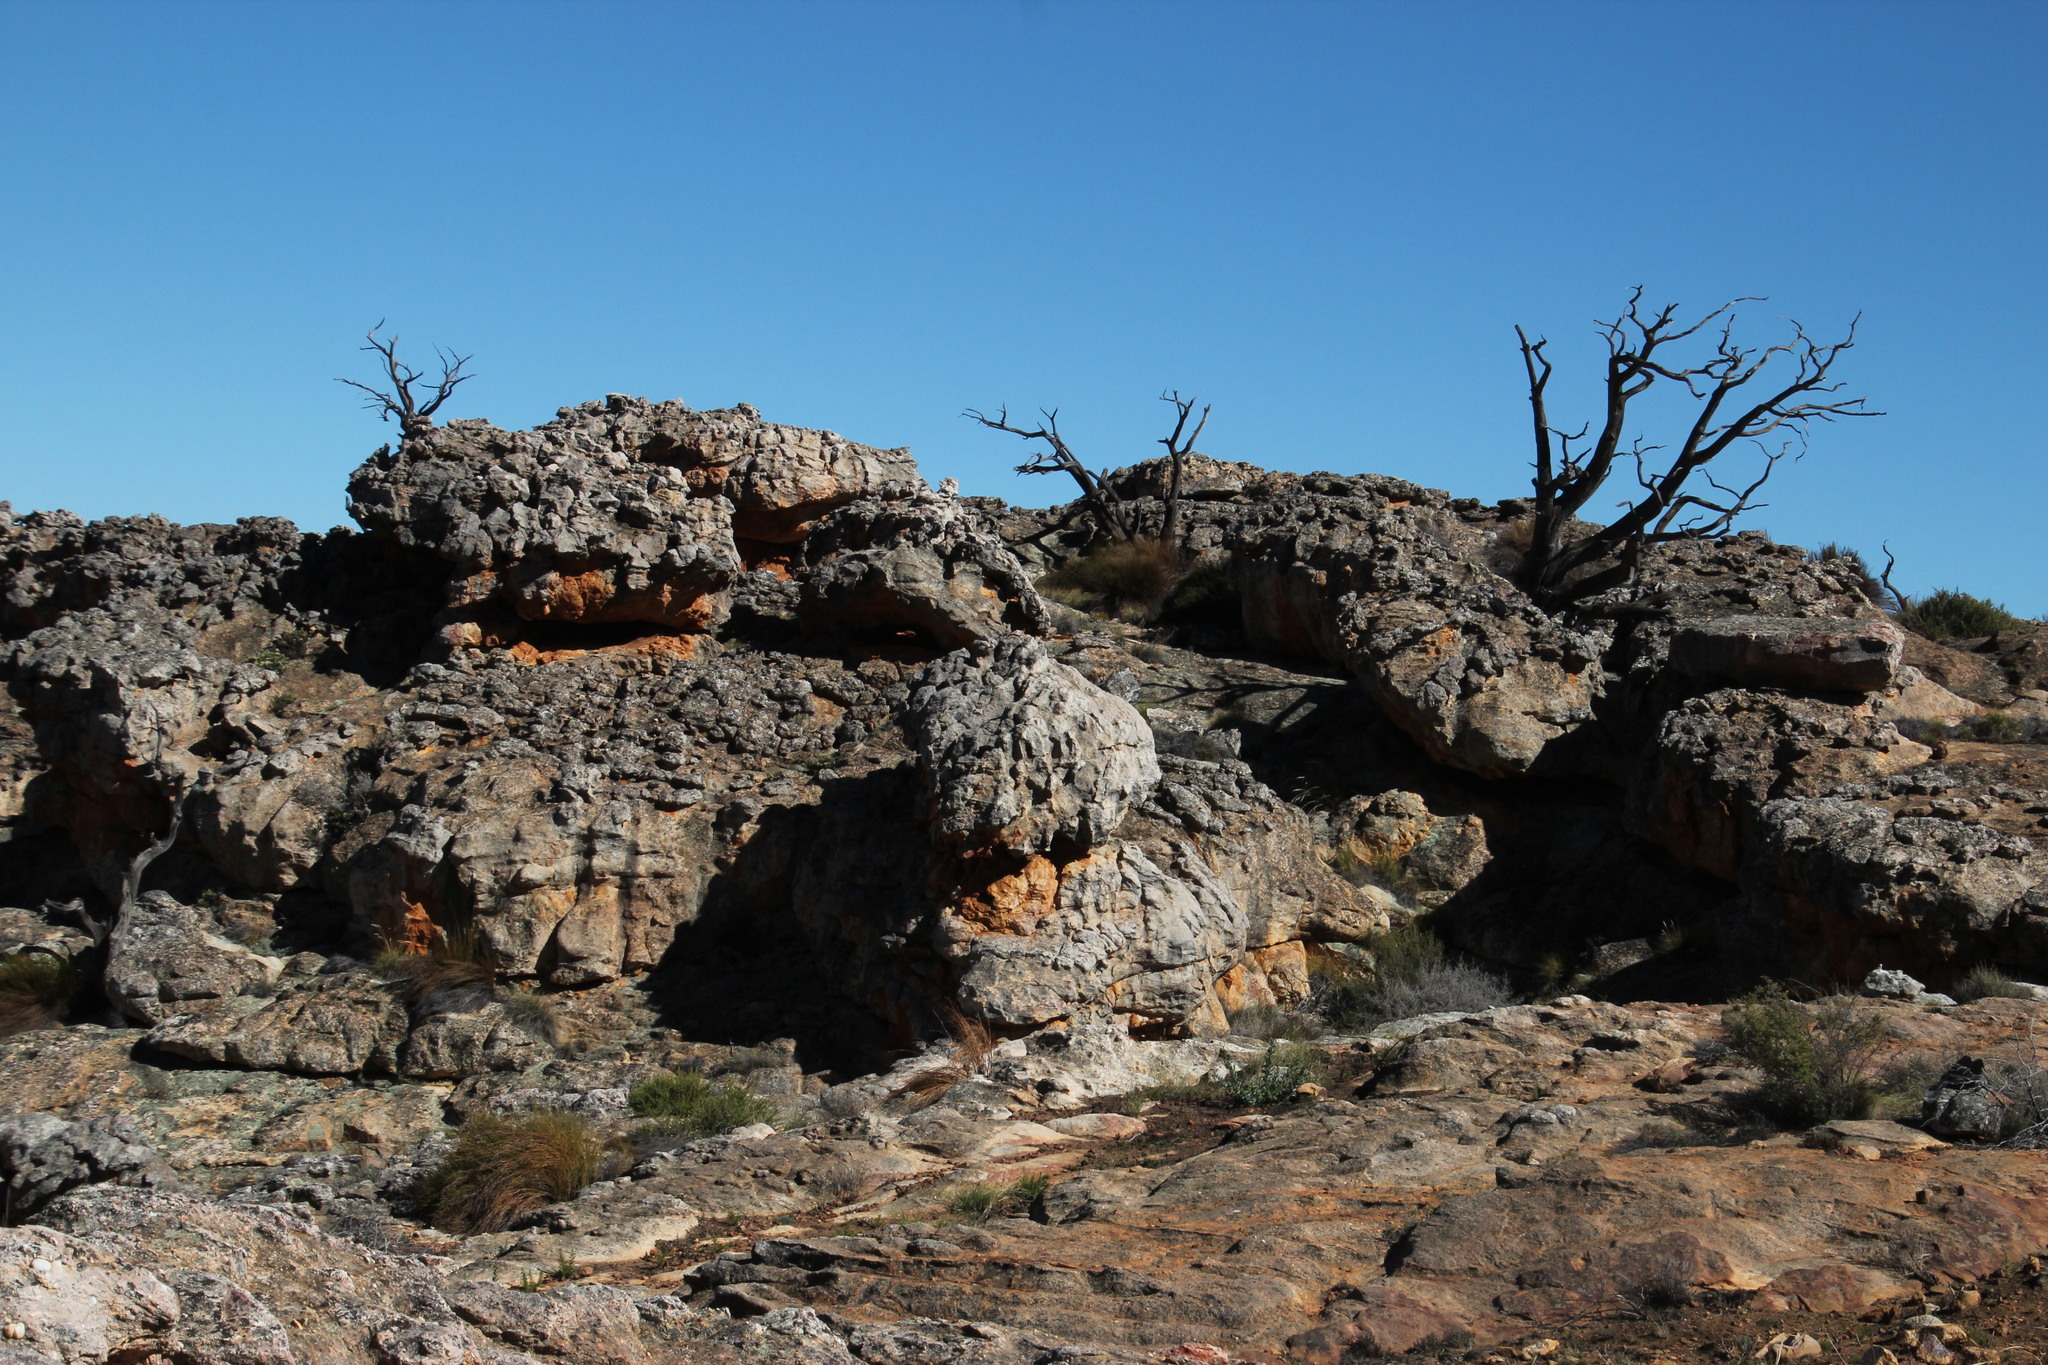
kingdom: Plantae
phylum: Tracheophyta
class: Pinopsida
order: Pinales
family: Cupressaceae
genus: Widdringtonia
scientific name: Widdringtonia nodiflora
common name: Cape cypress
